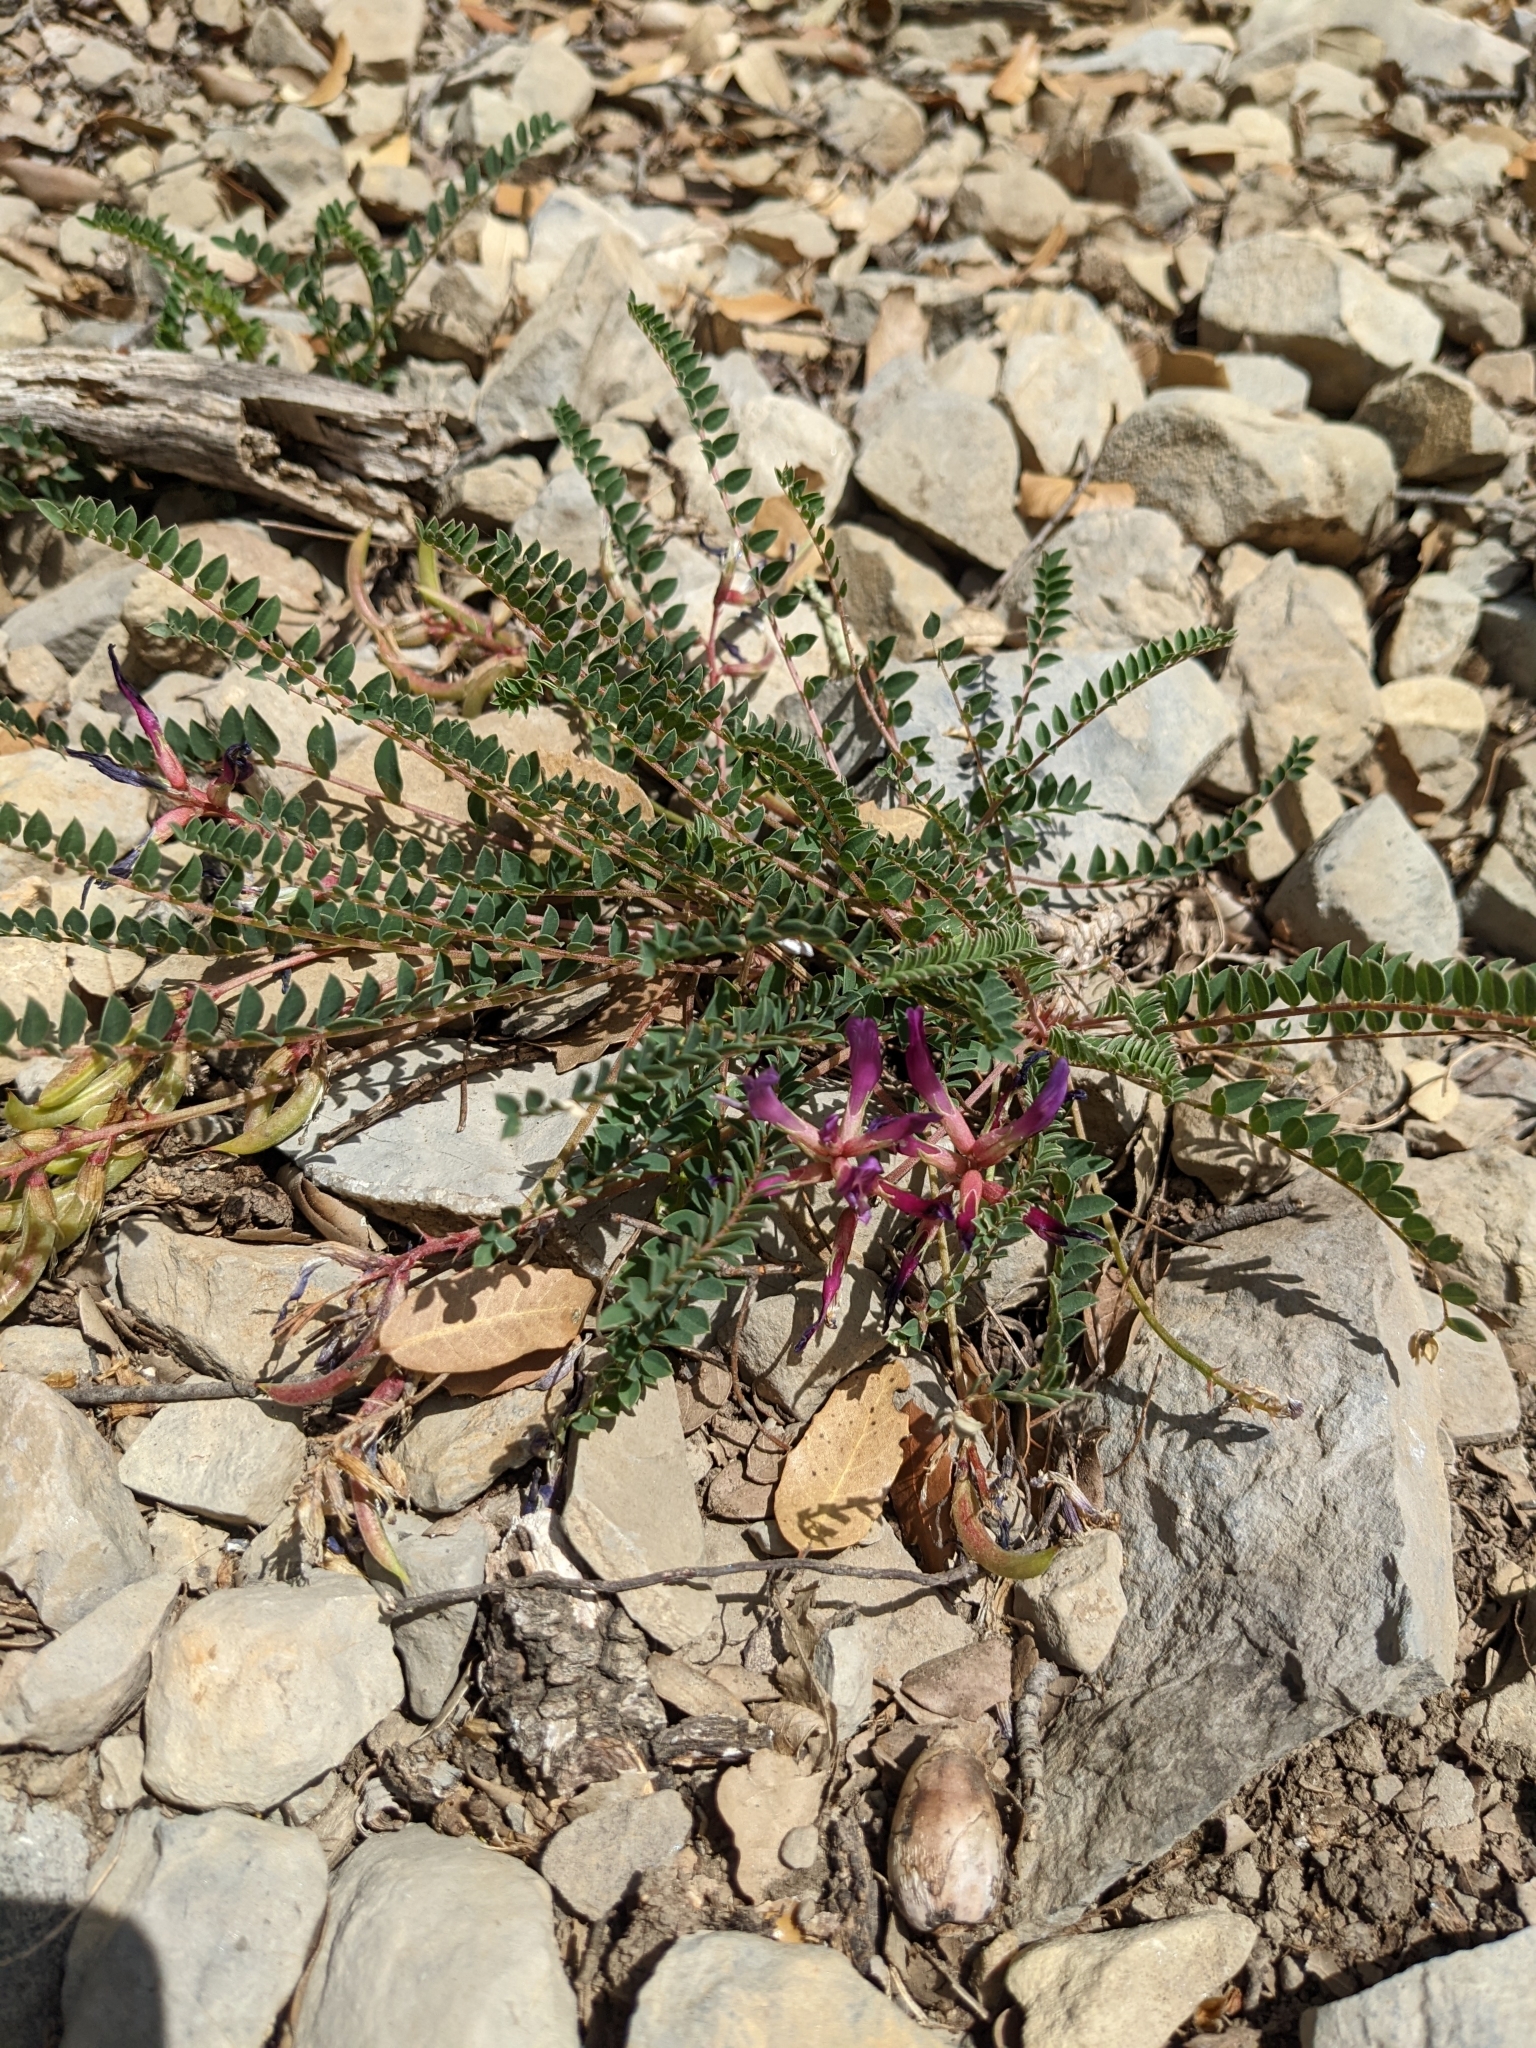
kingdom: Plantae
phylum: Tracheophyta
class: Magnoliopsida
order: Fabales
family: Fabaceae
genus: Astragalus
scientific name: Astragalus monspessulanus
